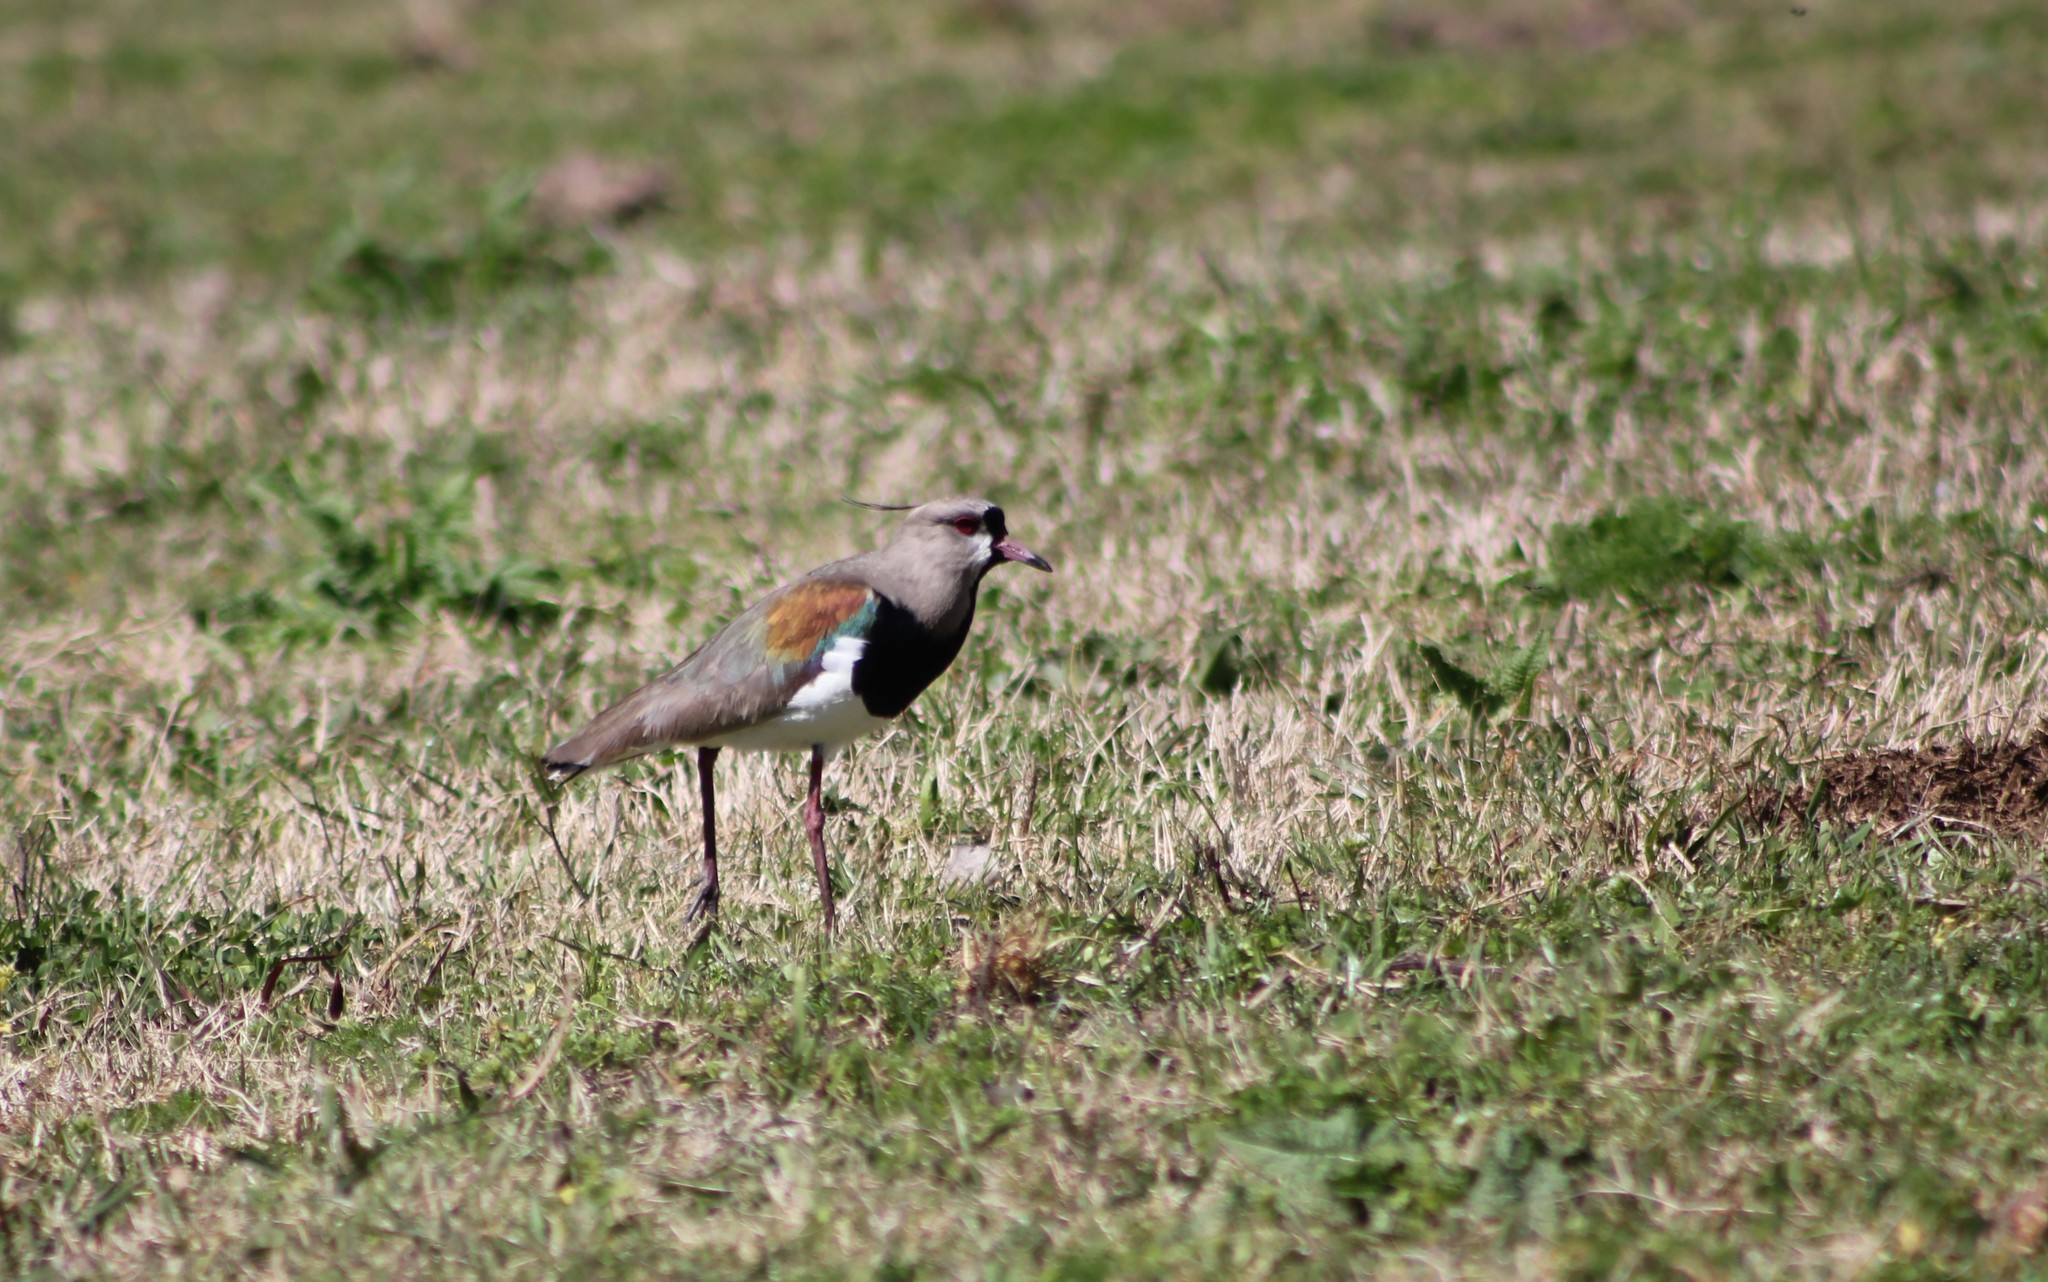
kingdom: Animalia
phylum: Chordata
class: Aves
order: Charadriiformes
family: Charadriidae
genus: Vanellus
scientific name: Vanellus chilensis
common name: Southern lapwing
